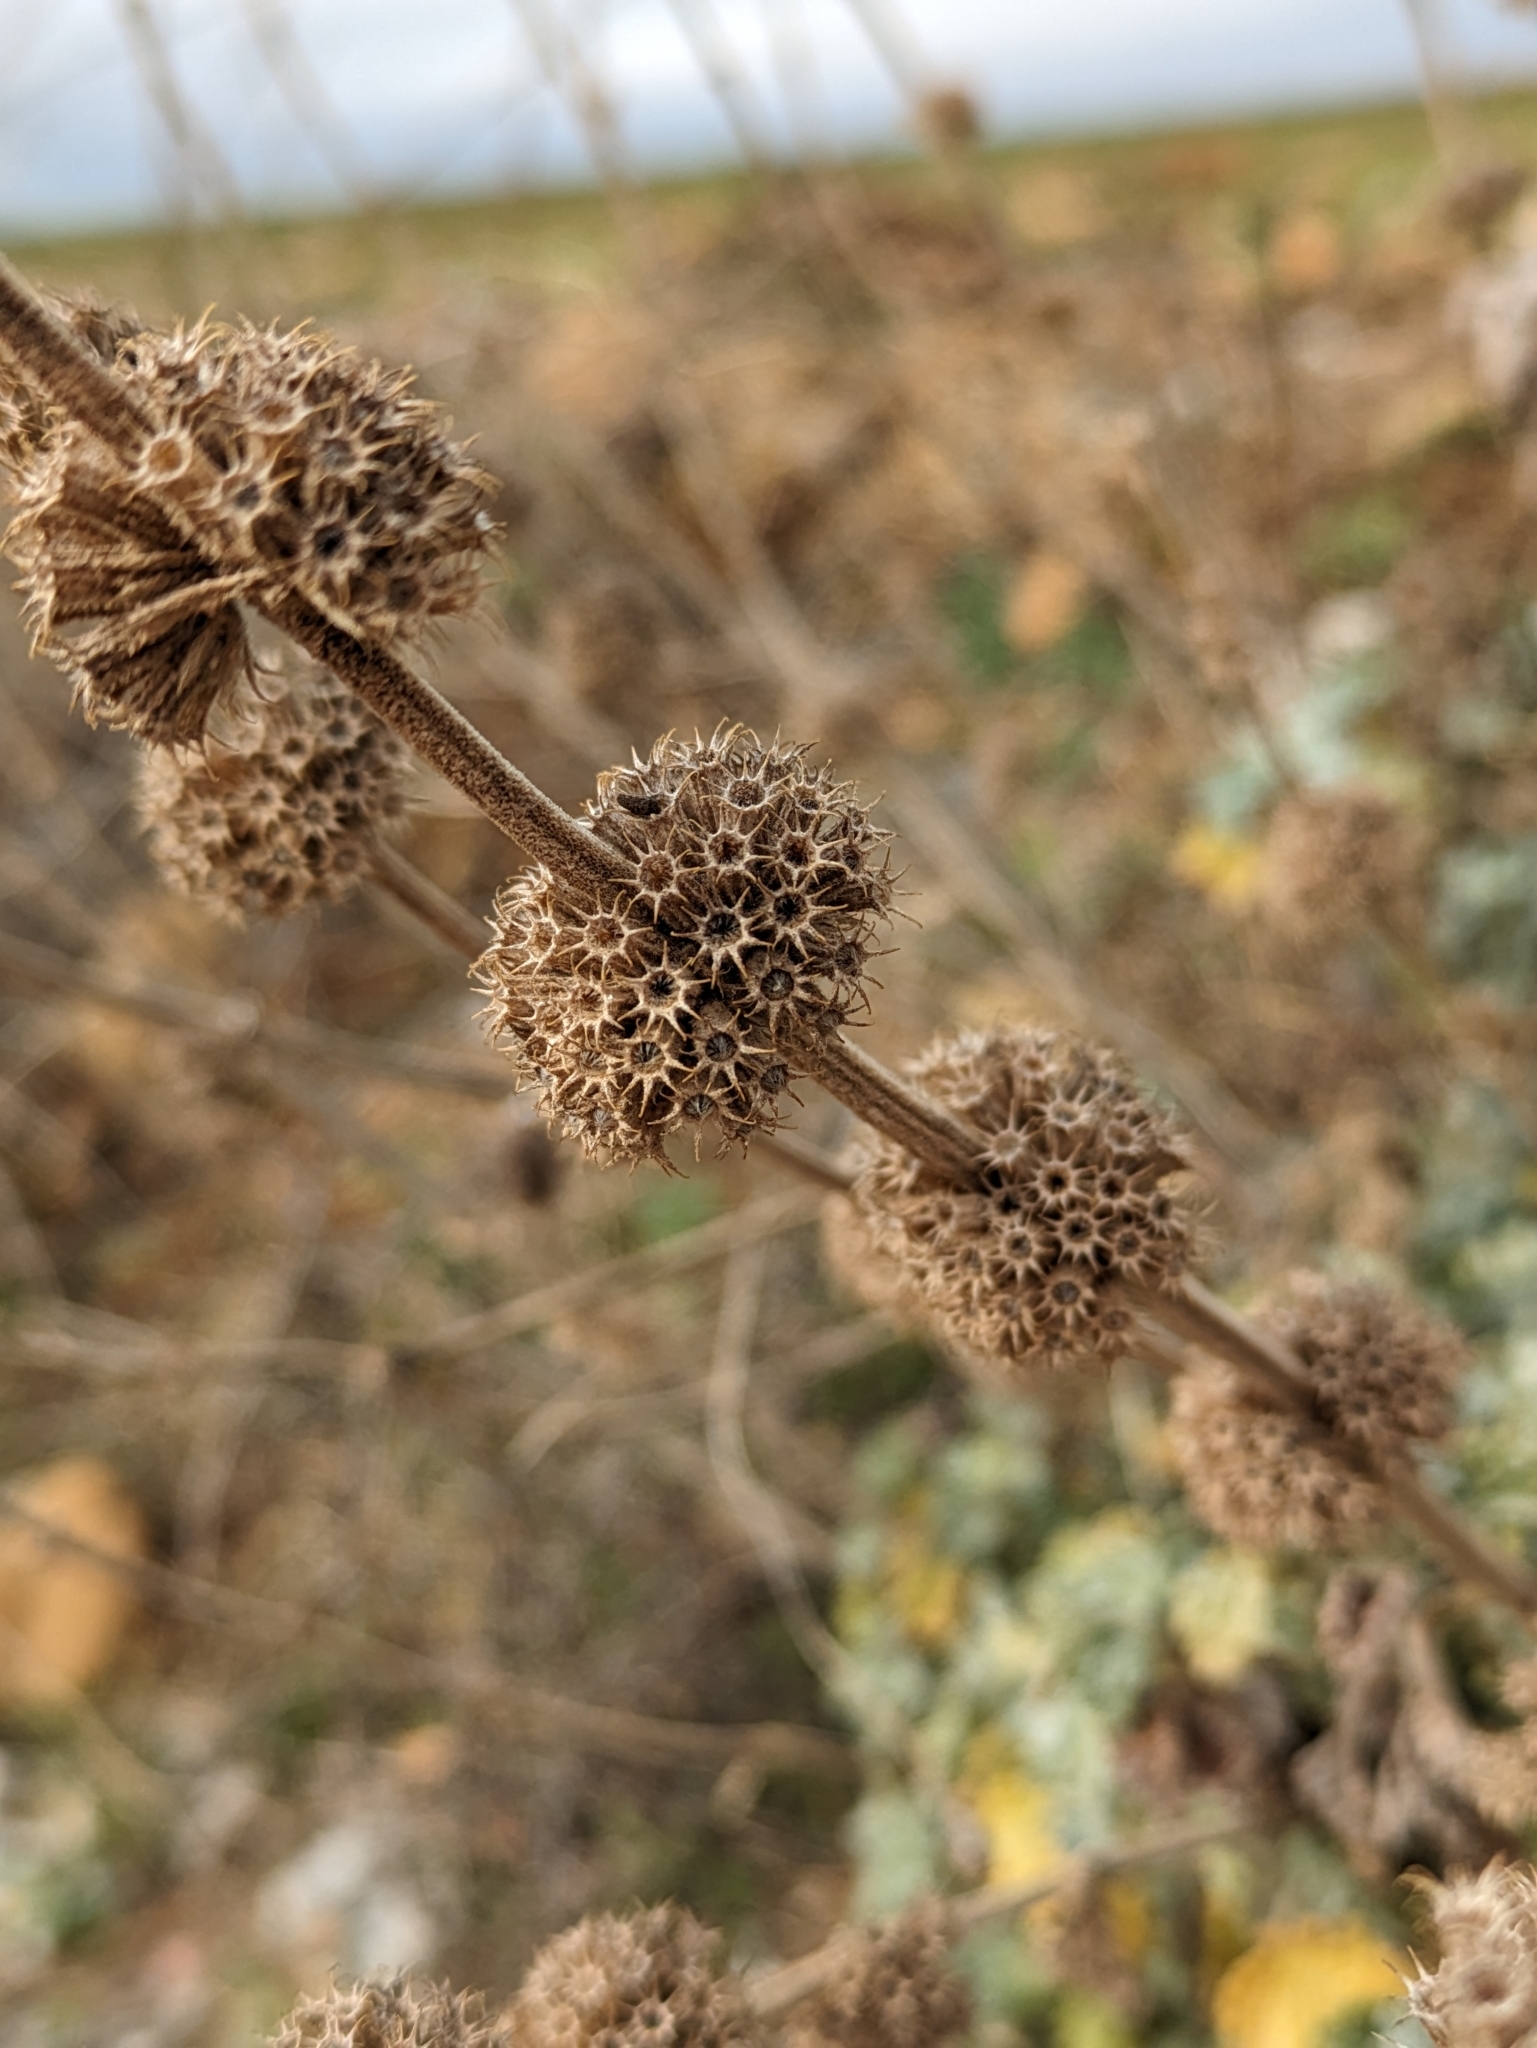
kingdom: Plantae
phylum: Tracheophyta
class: Magnoliopsida
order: Lamiales
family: Lamiaceae
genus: Marrubium
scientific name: Marrubium vulgare
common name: Horehound
